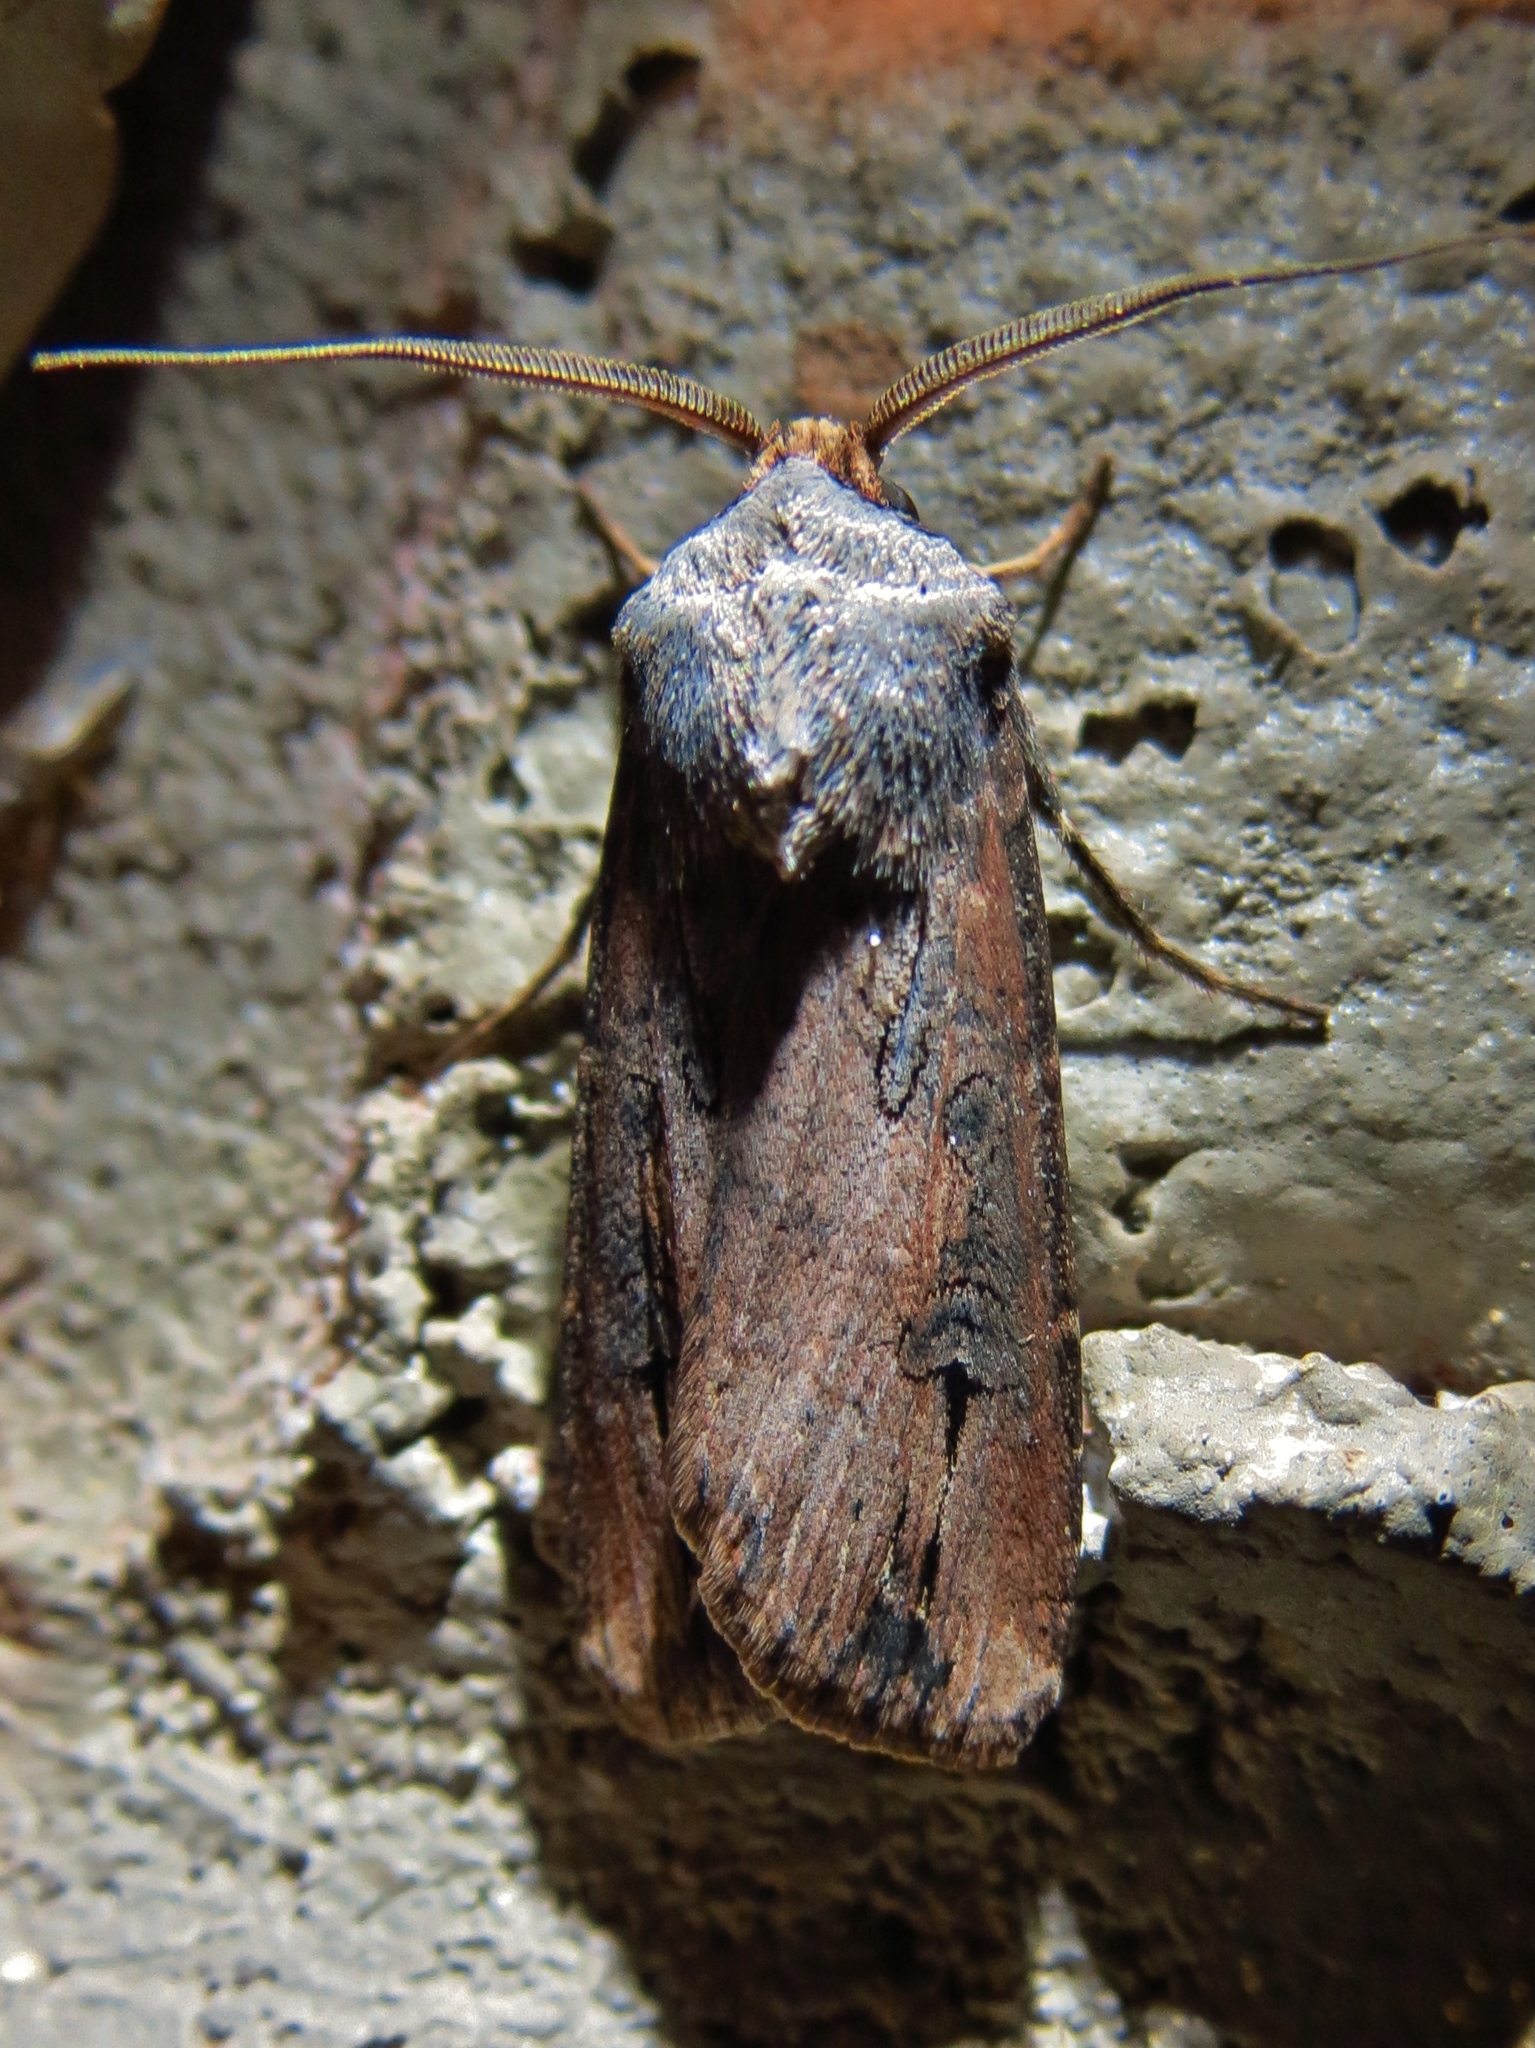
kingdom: Animalia
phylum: Arthropoda
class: Insecta
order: Lepidoptera
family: Noctuidae
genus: Agrotis
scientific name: Agrotis ipsilon
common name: Dark sword-grass
